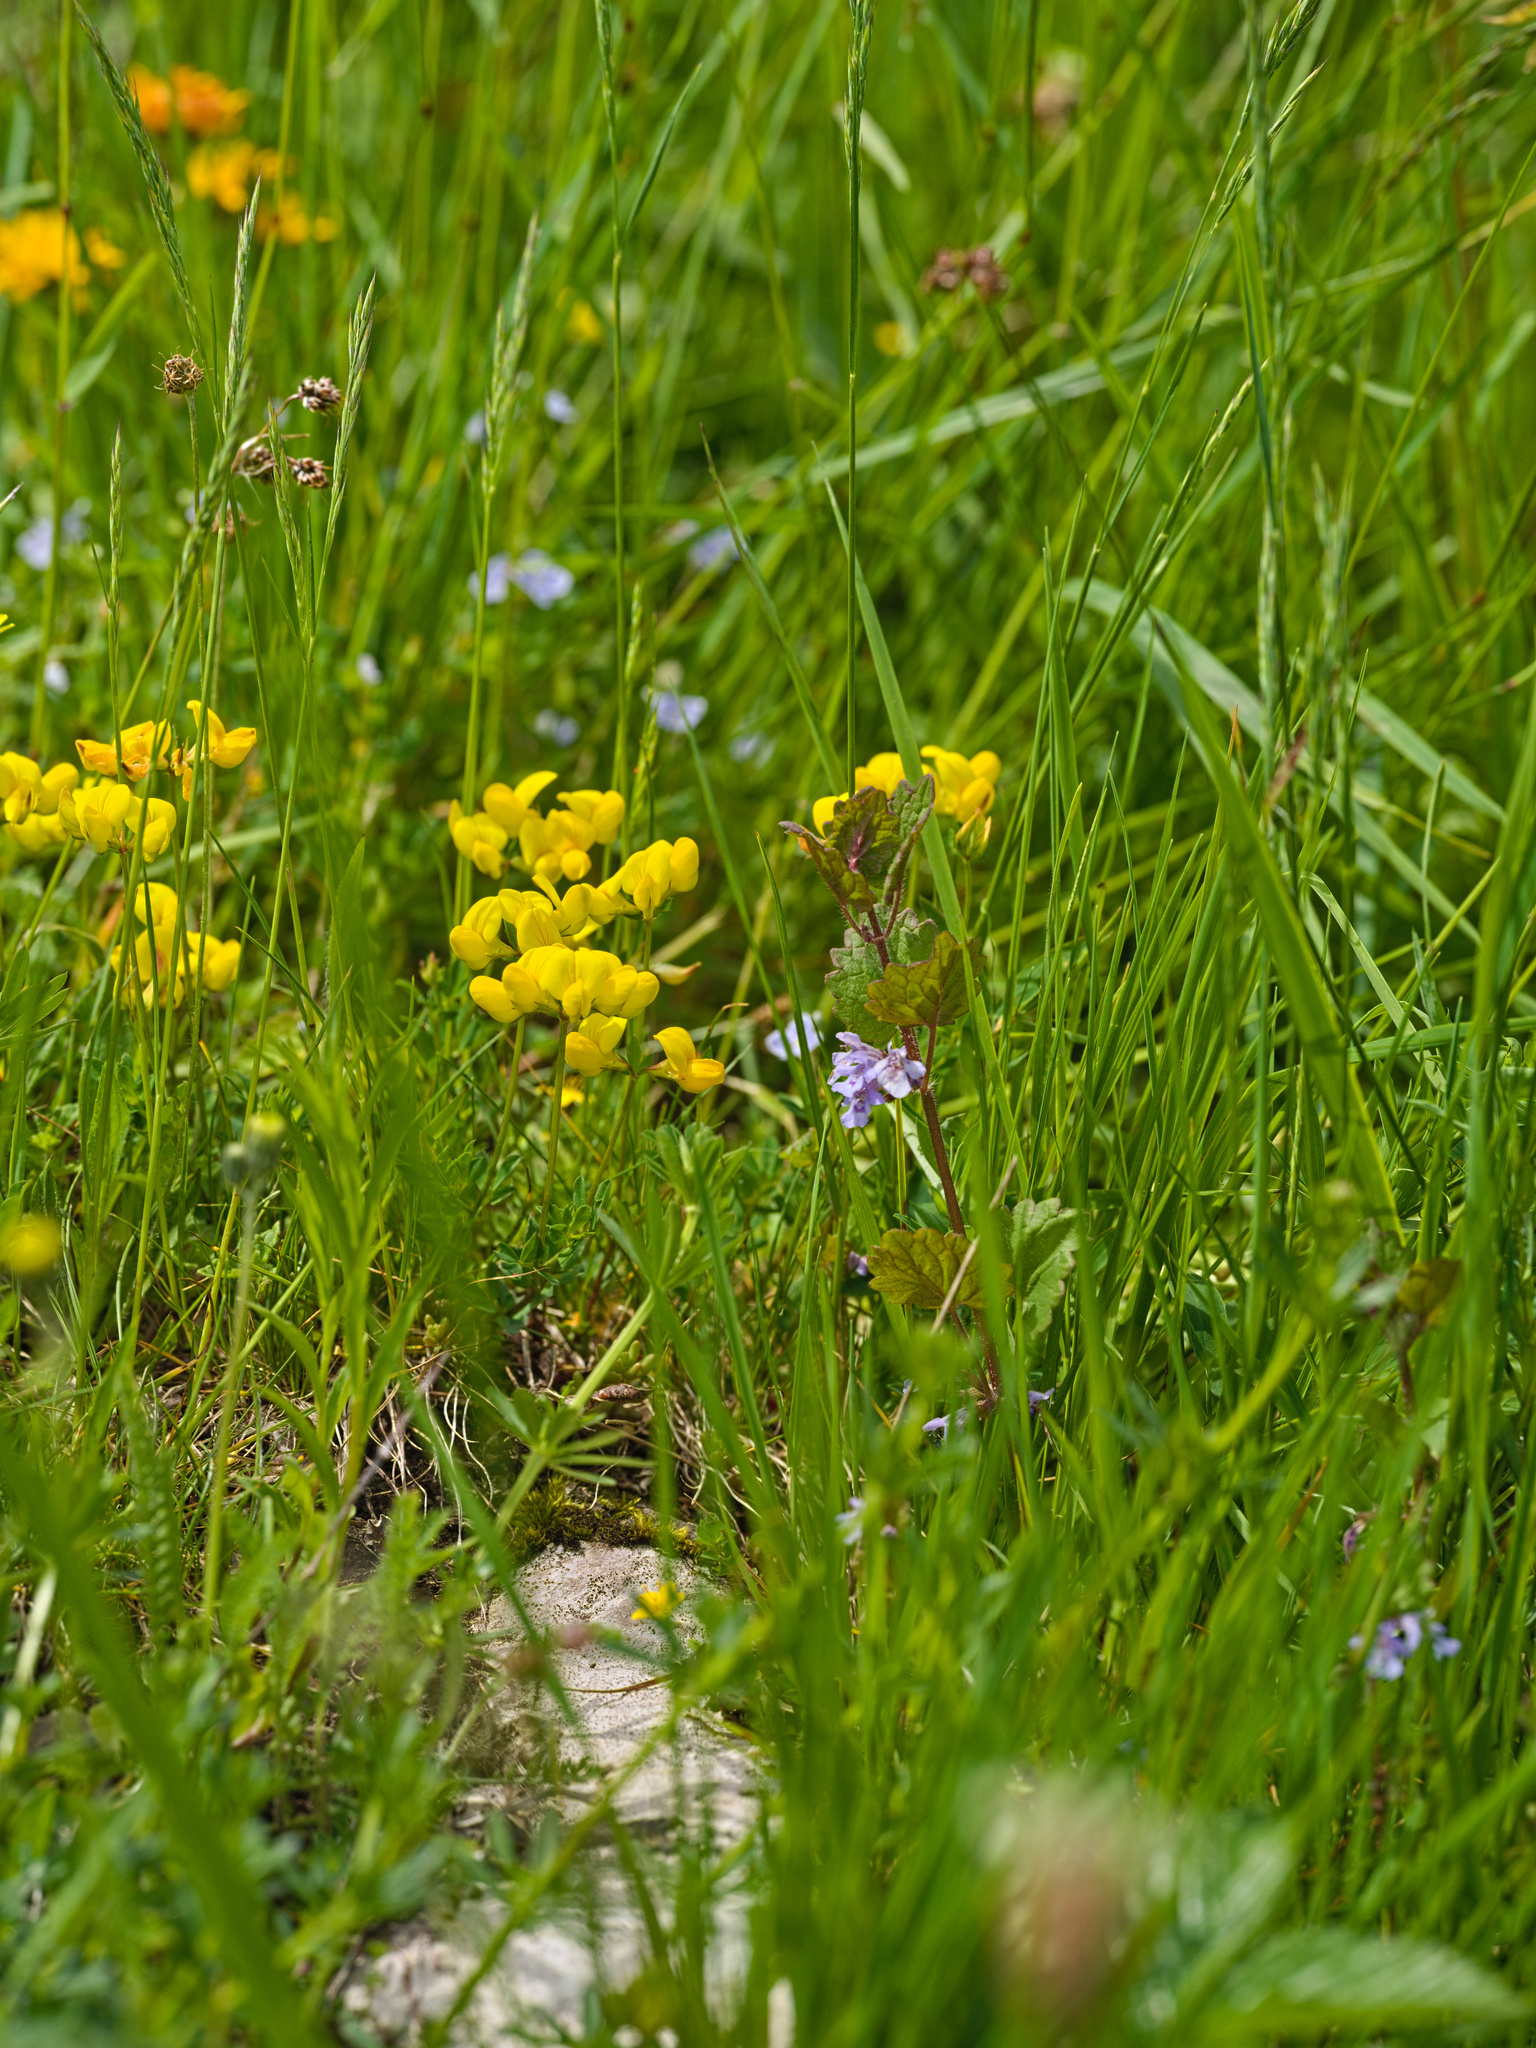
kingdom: Plantae
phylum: Tracheophyta
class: Magnoliopsida
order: Lamiales
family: Lamiaceae
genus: Glechoma
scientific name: Glechoma hederacea
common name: Ground ivy
